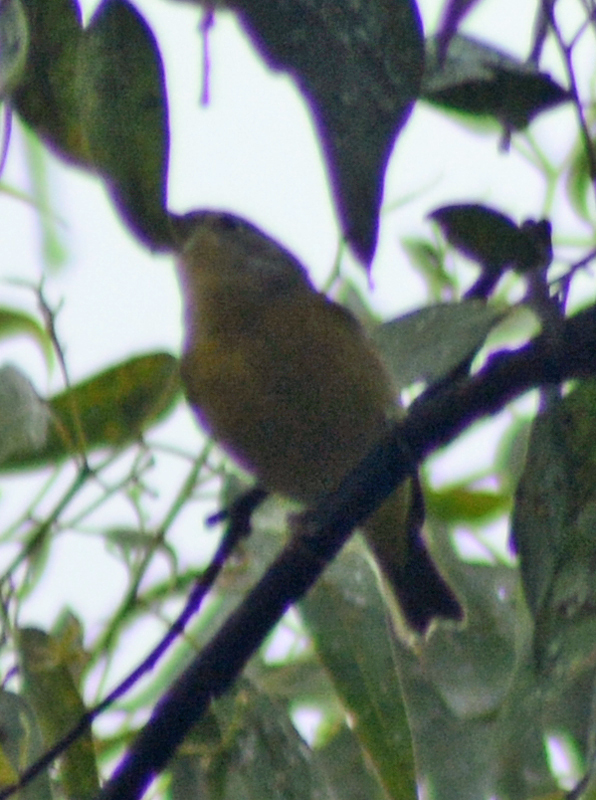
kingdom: Animalia
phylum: Chordata
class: Aves
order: Passeriformes
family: Parulidae
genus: Leiothlypis
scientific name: Leiothlypis ruficapilla
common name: Nashville warbler
